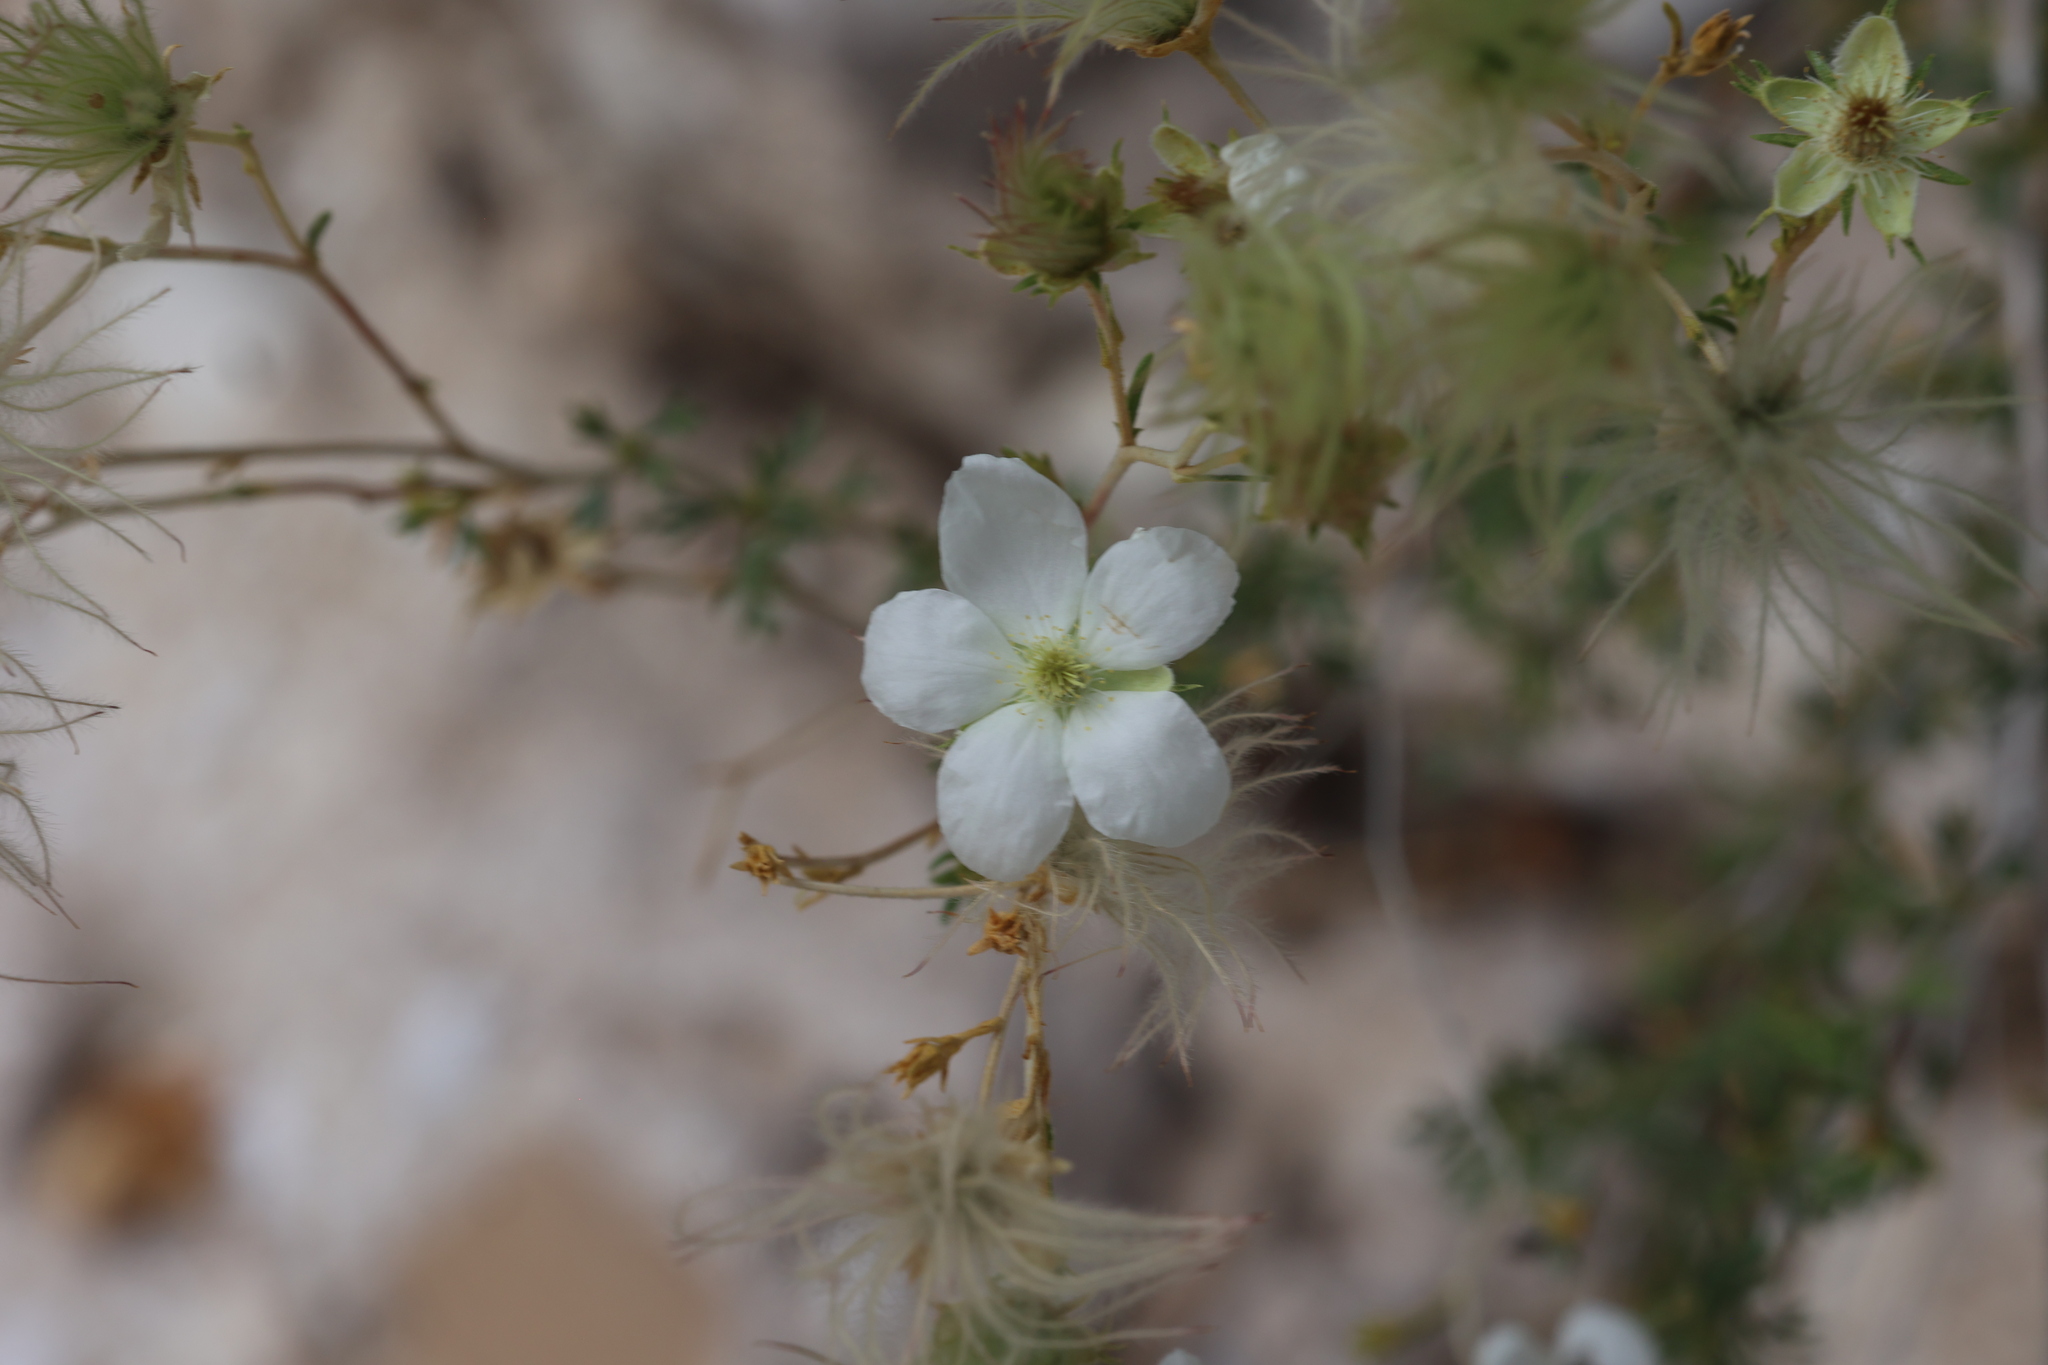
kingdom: Plantae
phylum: Tracheophyta
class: Magnoliopsida
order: Rosales
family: Rosaceae
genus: Fallugia
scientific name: Fallugia paradoxa
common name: Apache-plume
